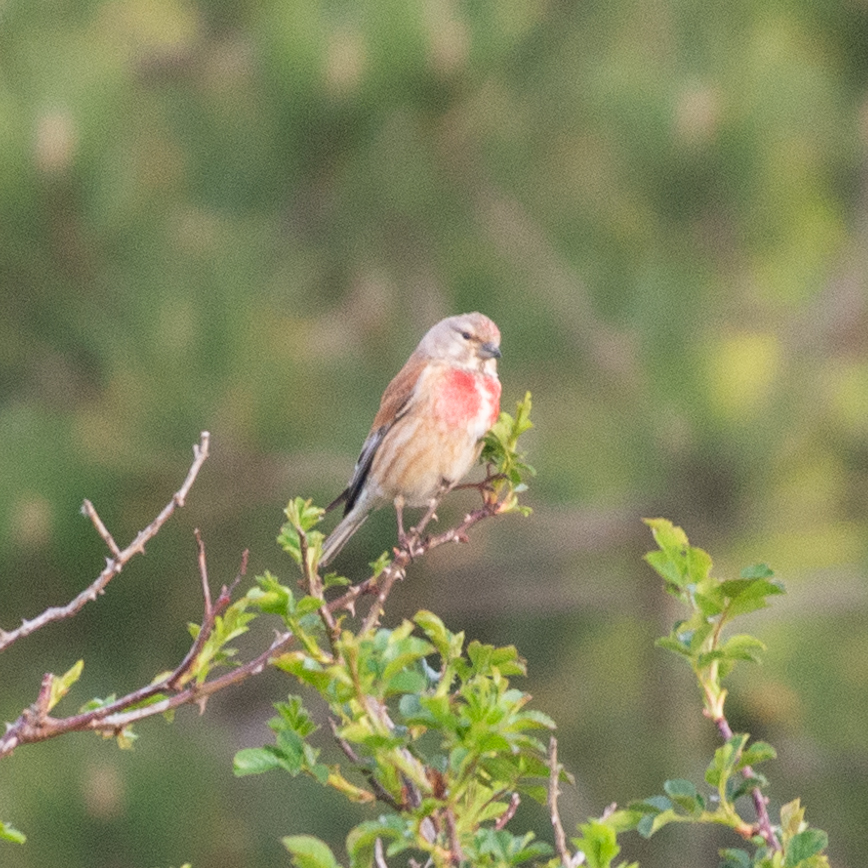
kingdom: Animalia
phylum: Chordata
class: Aves
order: Passeriformes
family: Fringillidae
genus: Linaria
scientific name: Linaria cannabina
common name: Common linnet
